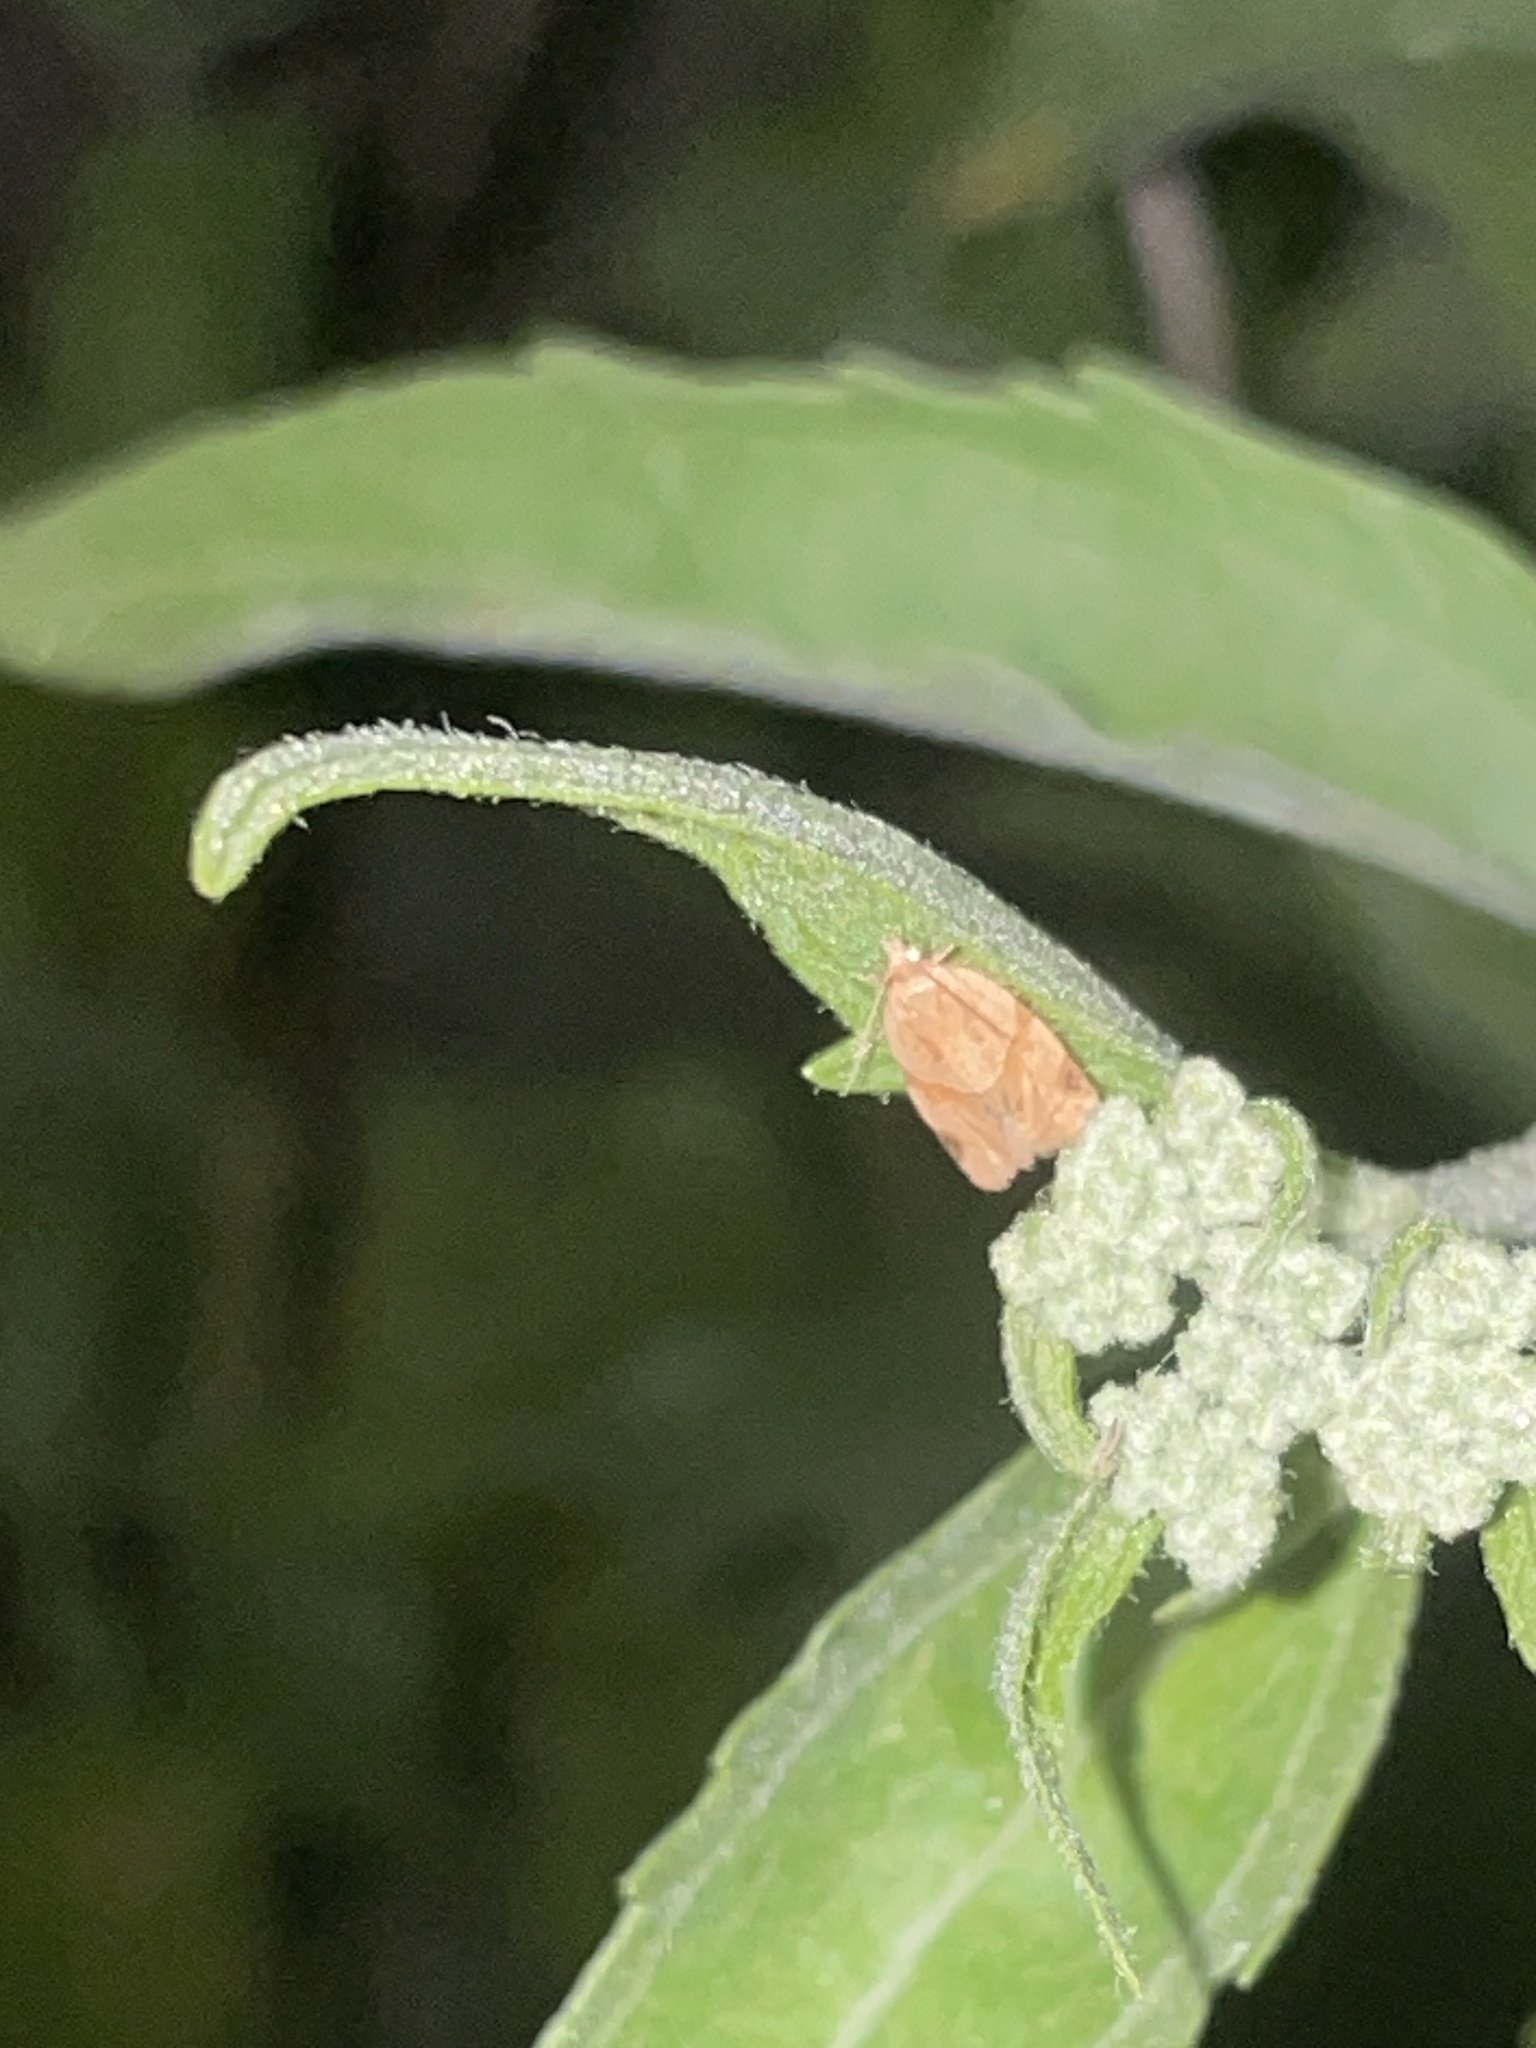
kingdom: Animalia
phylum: Arthropoda
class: Insecta
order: Lepidoptera
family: Tortricidae
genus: Clepsis
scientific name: Clepsis peritana
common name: Garden tortrix
